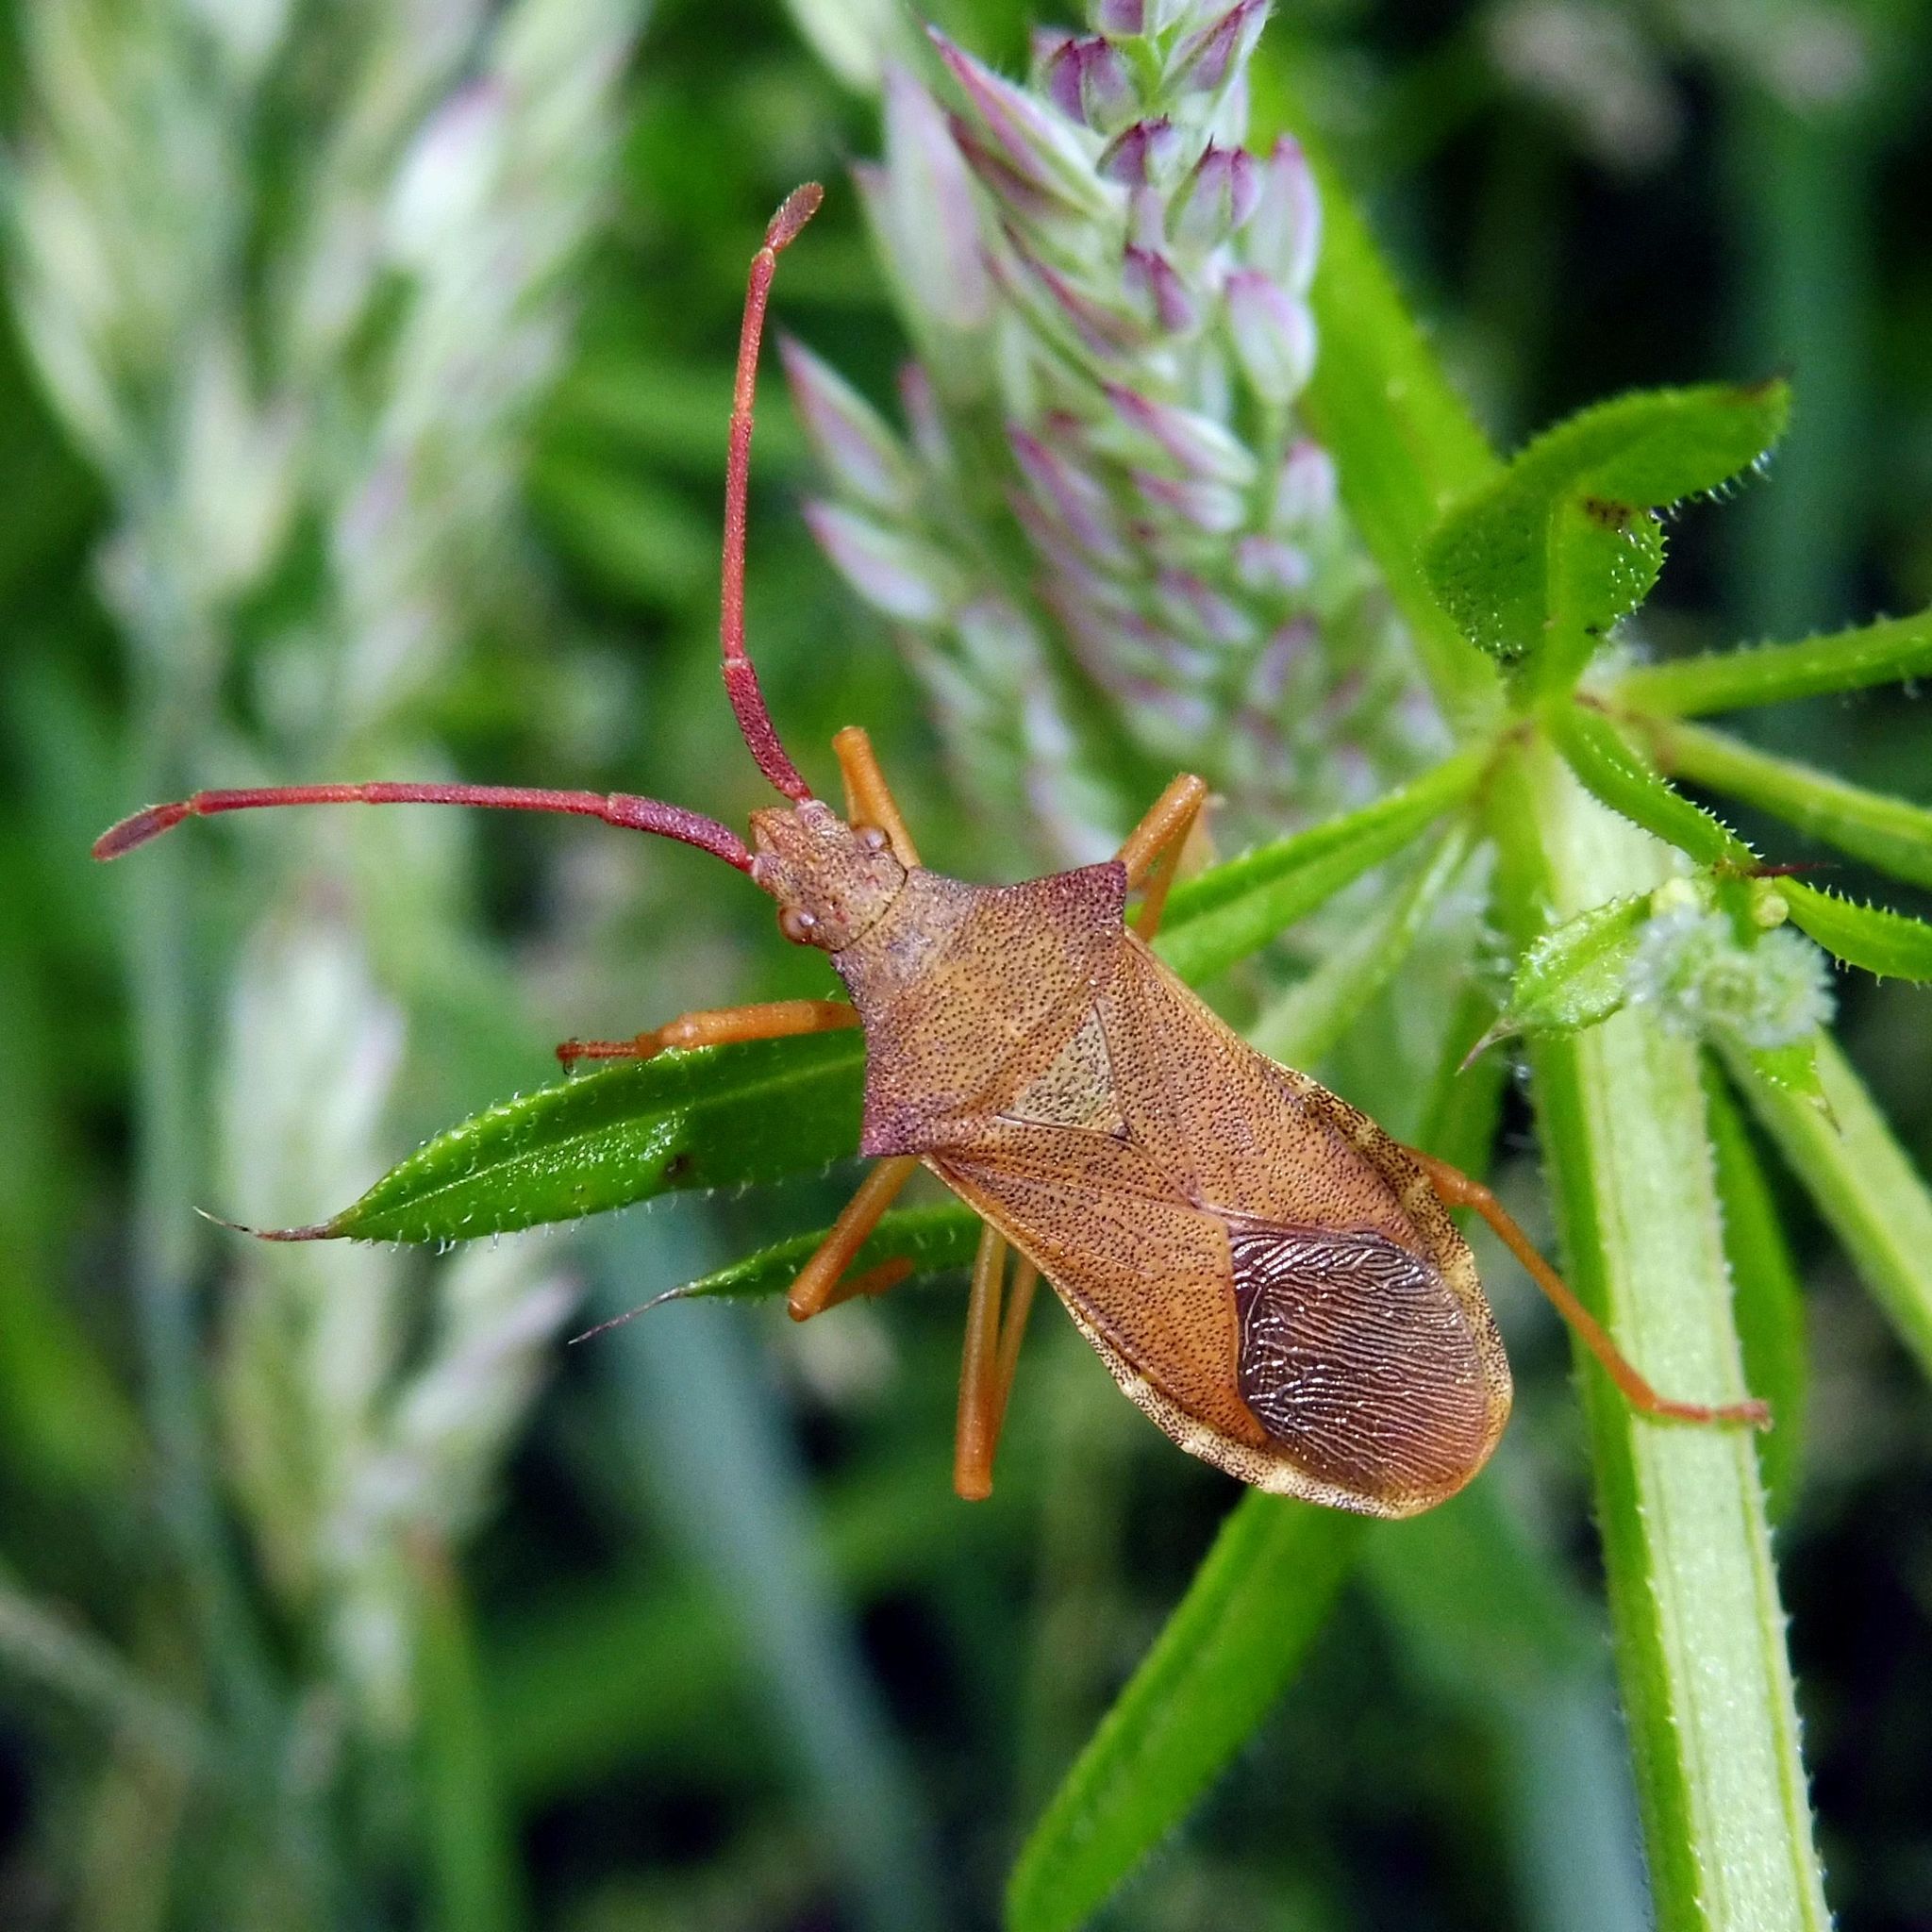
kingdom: Animalia
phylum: Arthropoda
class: Insecta
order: Hemiptera
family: Coreidae
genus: Gonocerus
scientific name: Gonocerus acuteangulatus
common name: Box bug
